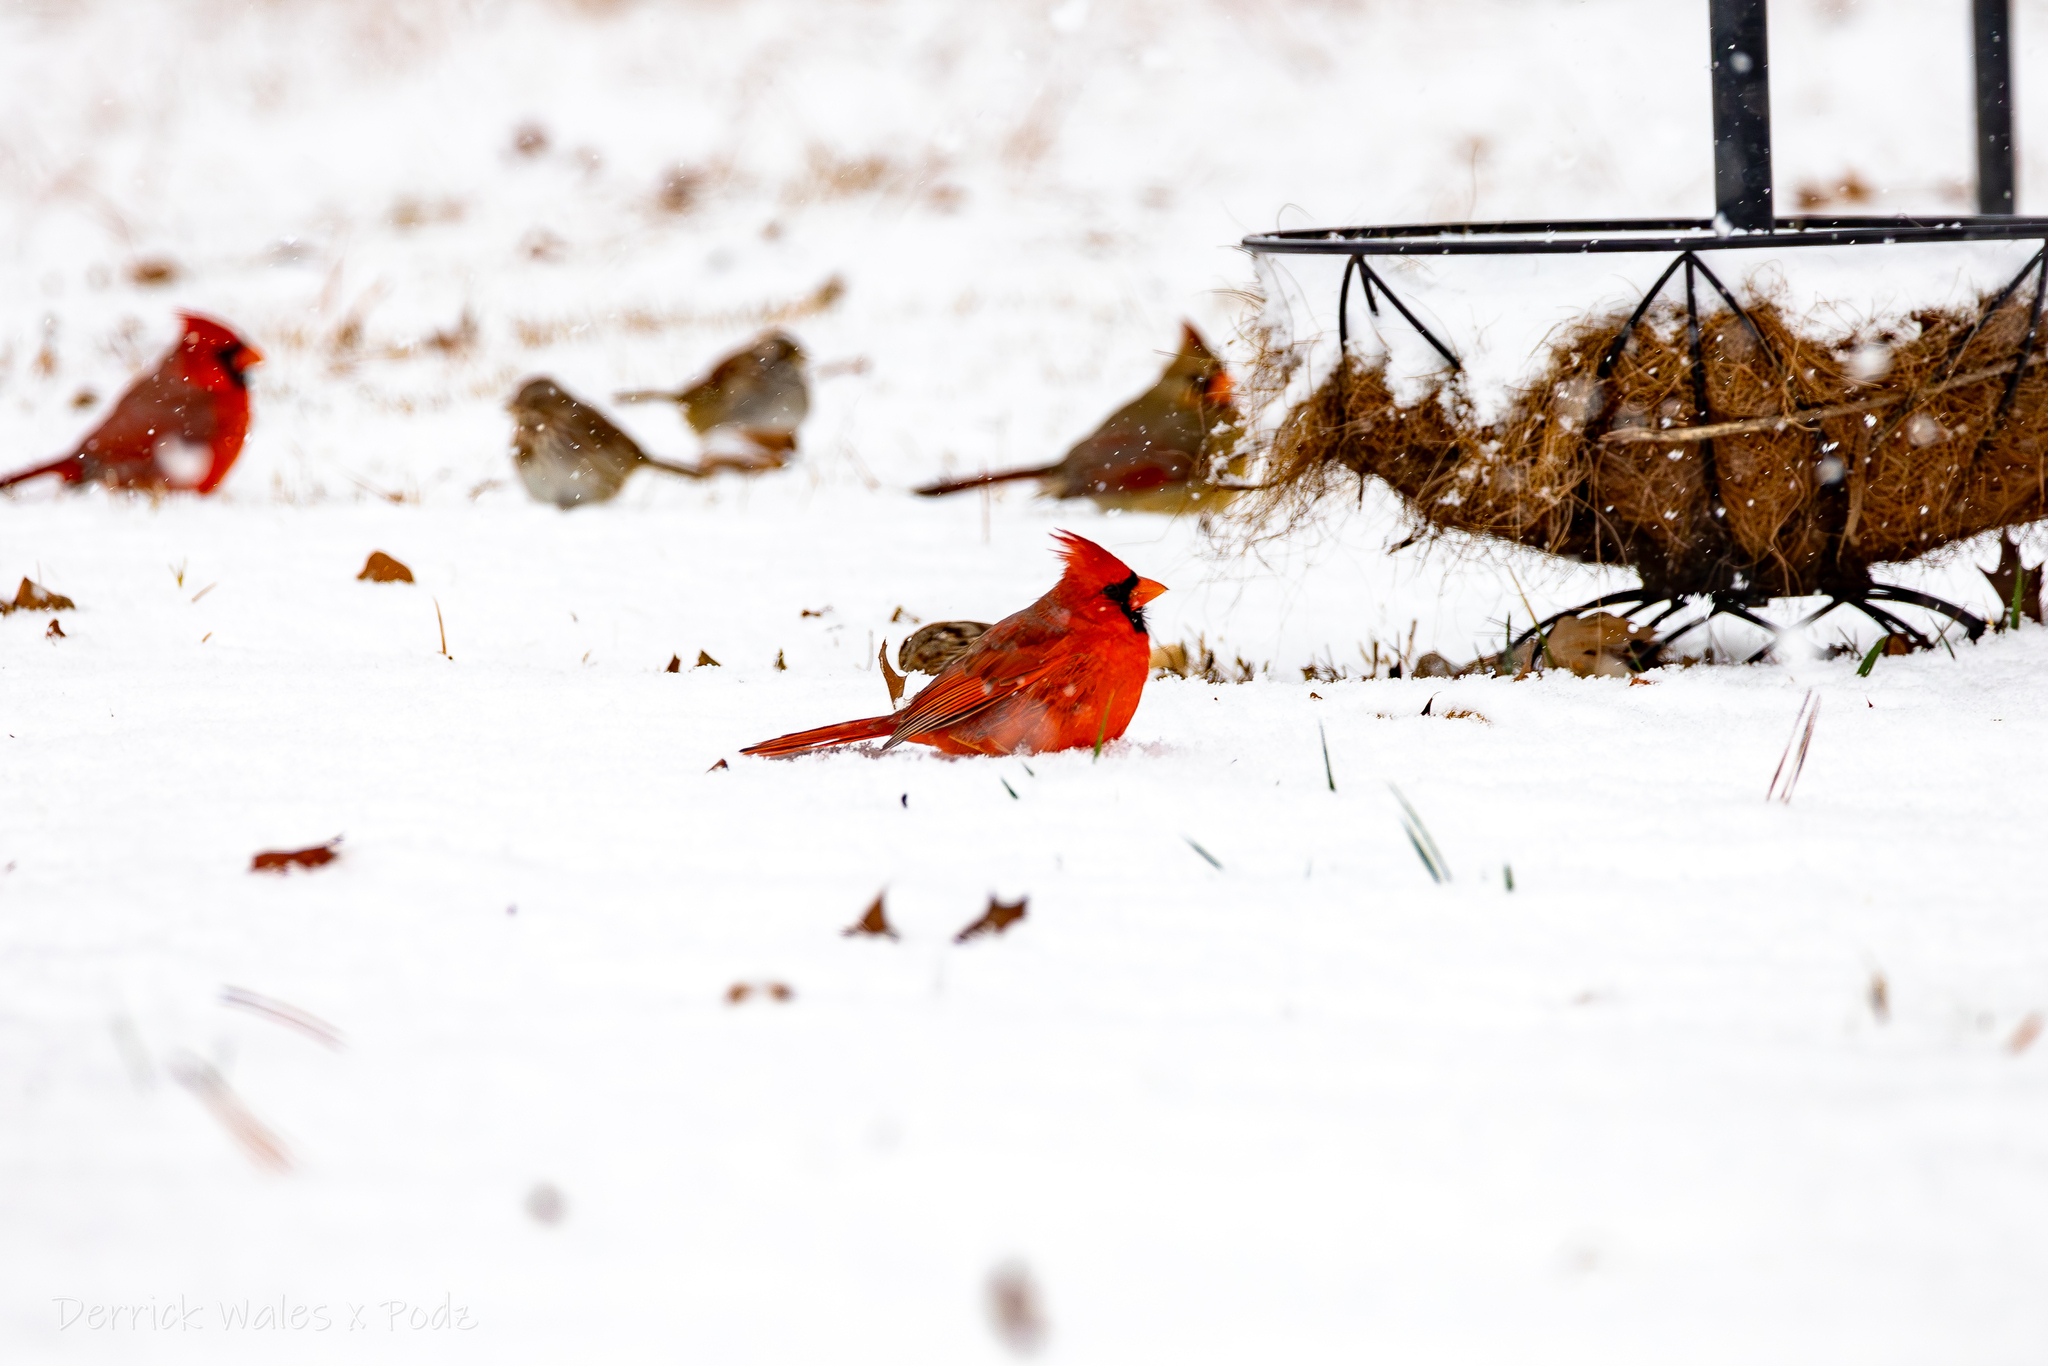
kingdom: Animalia
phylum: Chordata
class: Aves
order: Passeriformes
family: Cardinalidae
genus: Cardinalis
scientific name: Cardinalis cardinalis
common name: Northern cardinal
